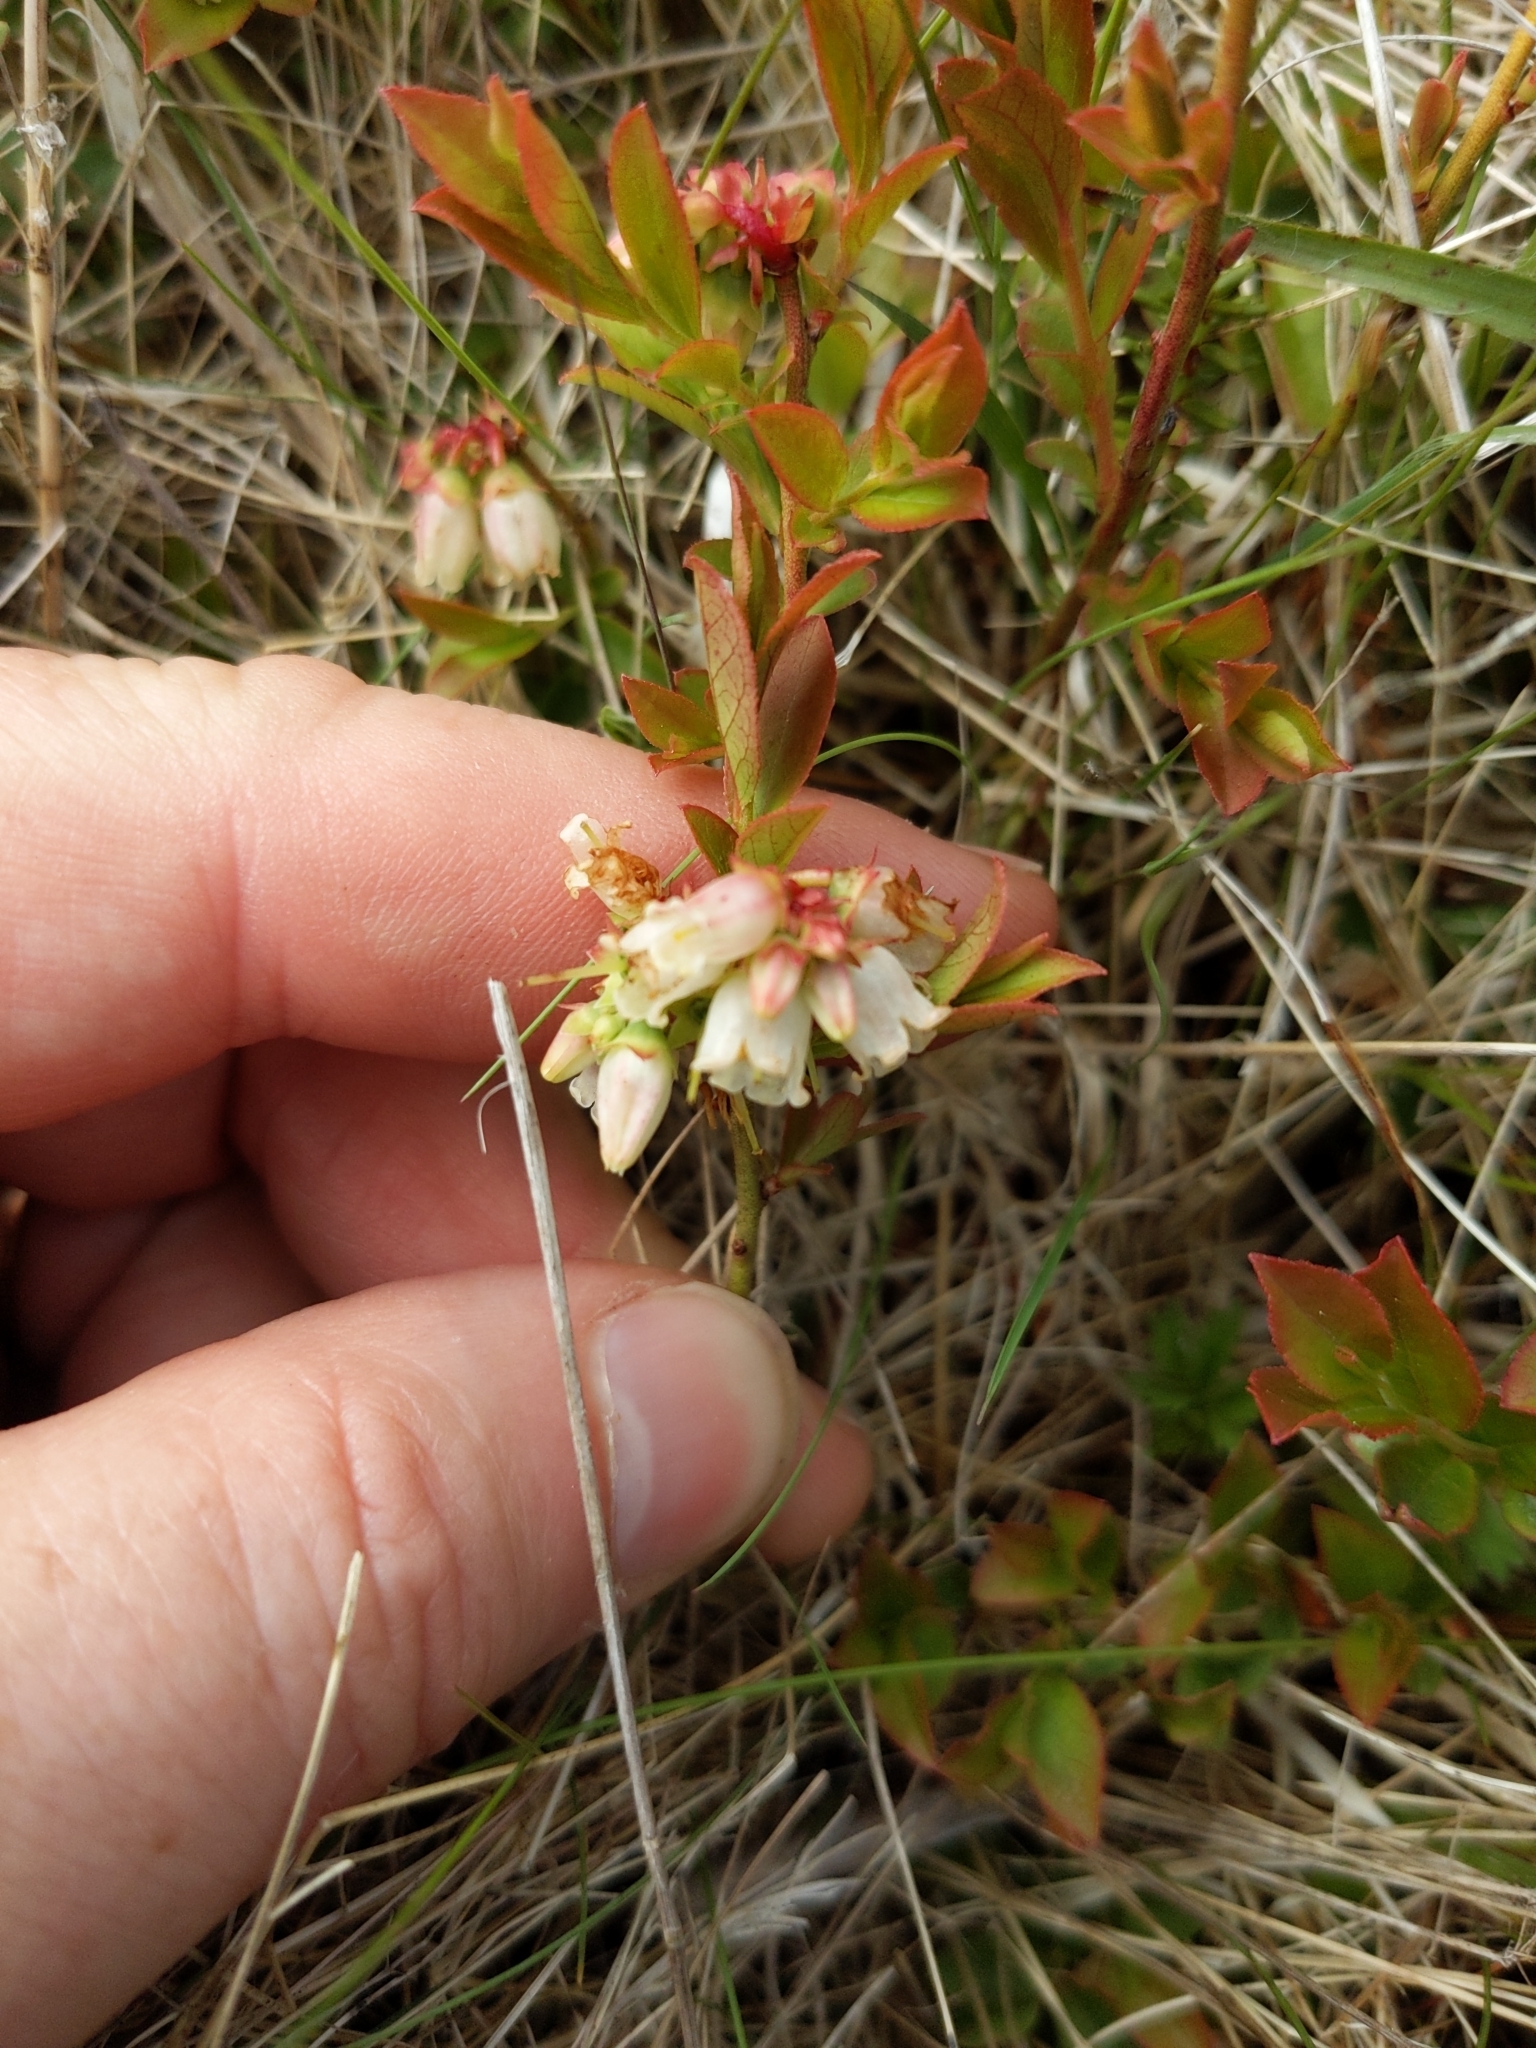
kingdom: Plantae
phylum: Tracheophyta
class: Magnoliopsida
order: Ericales
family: Ericaceae
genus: Vaccinium
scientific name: Vaccinium angustifolium
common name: Early lowbush blueberry
